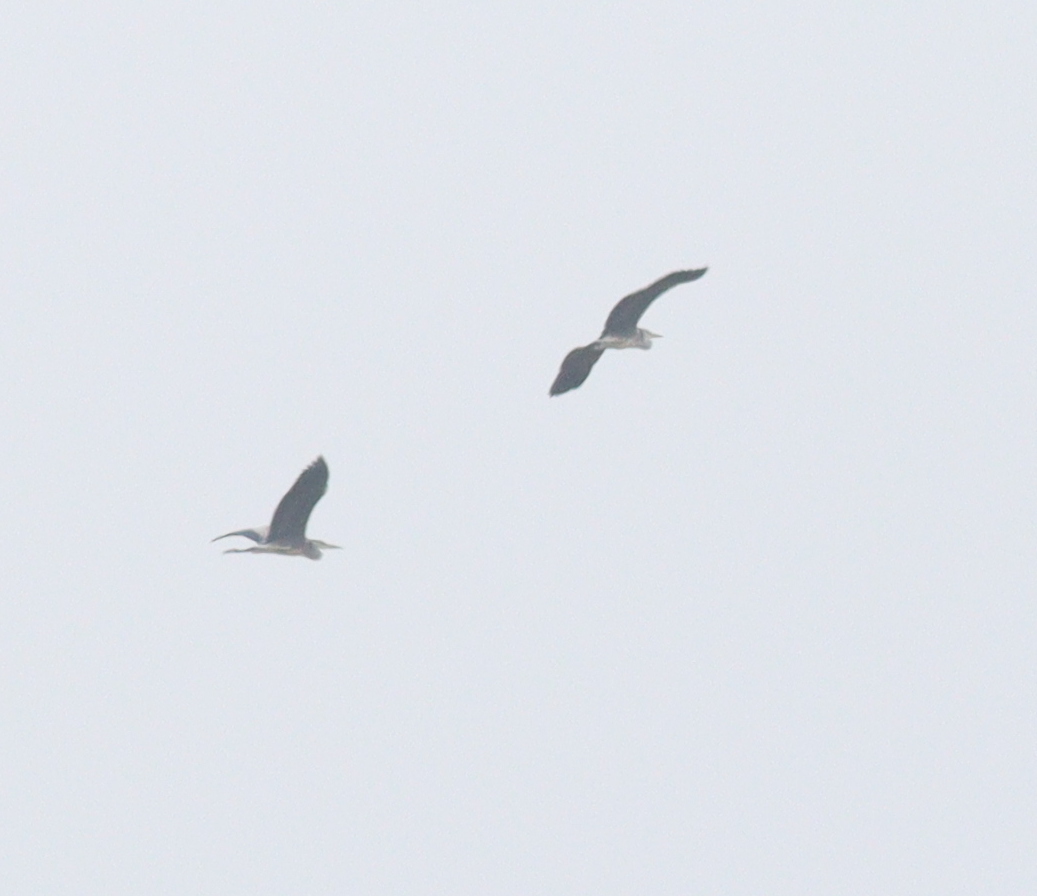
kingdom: Animalia
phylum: Chordata
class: Aves
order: Pelecaniformes
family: Ardeidae
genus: Ardea
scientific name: Ardea cinerea
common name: Grey heron
